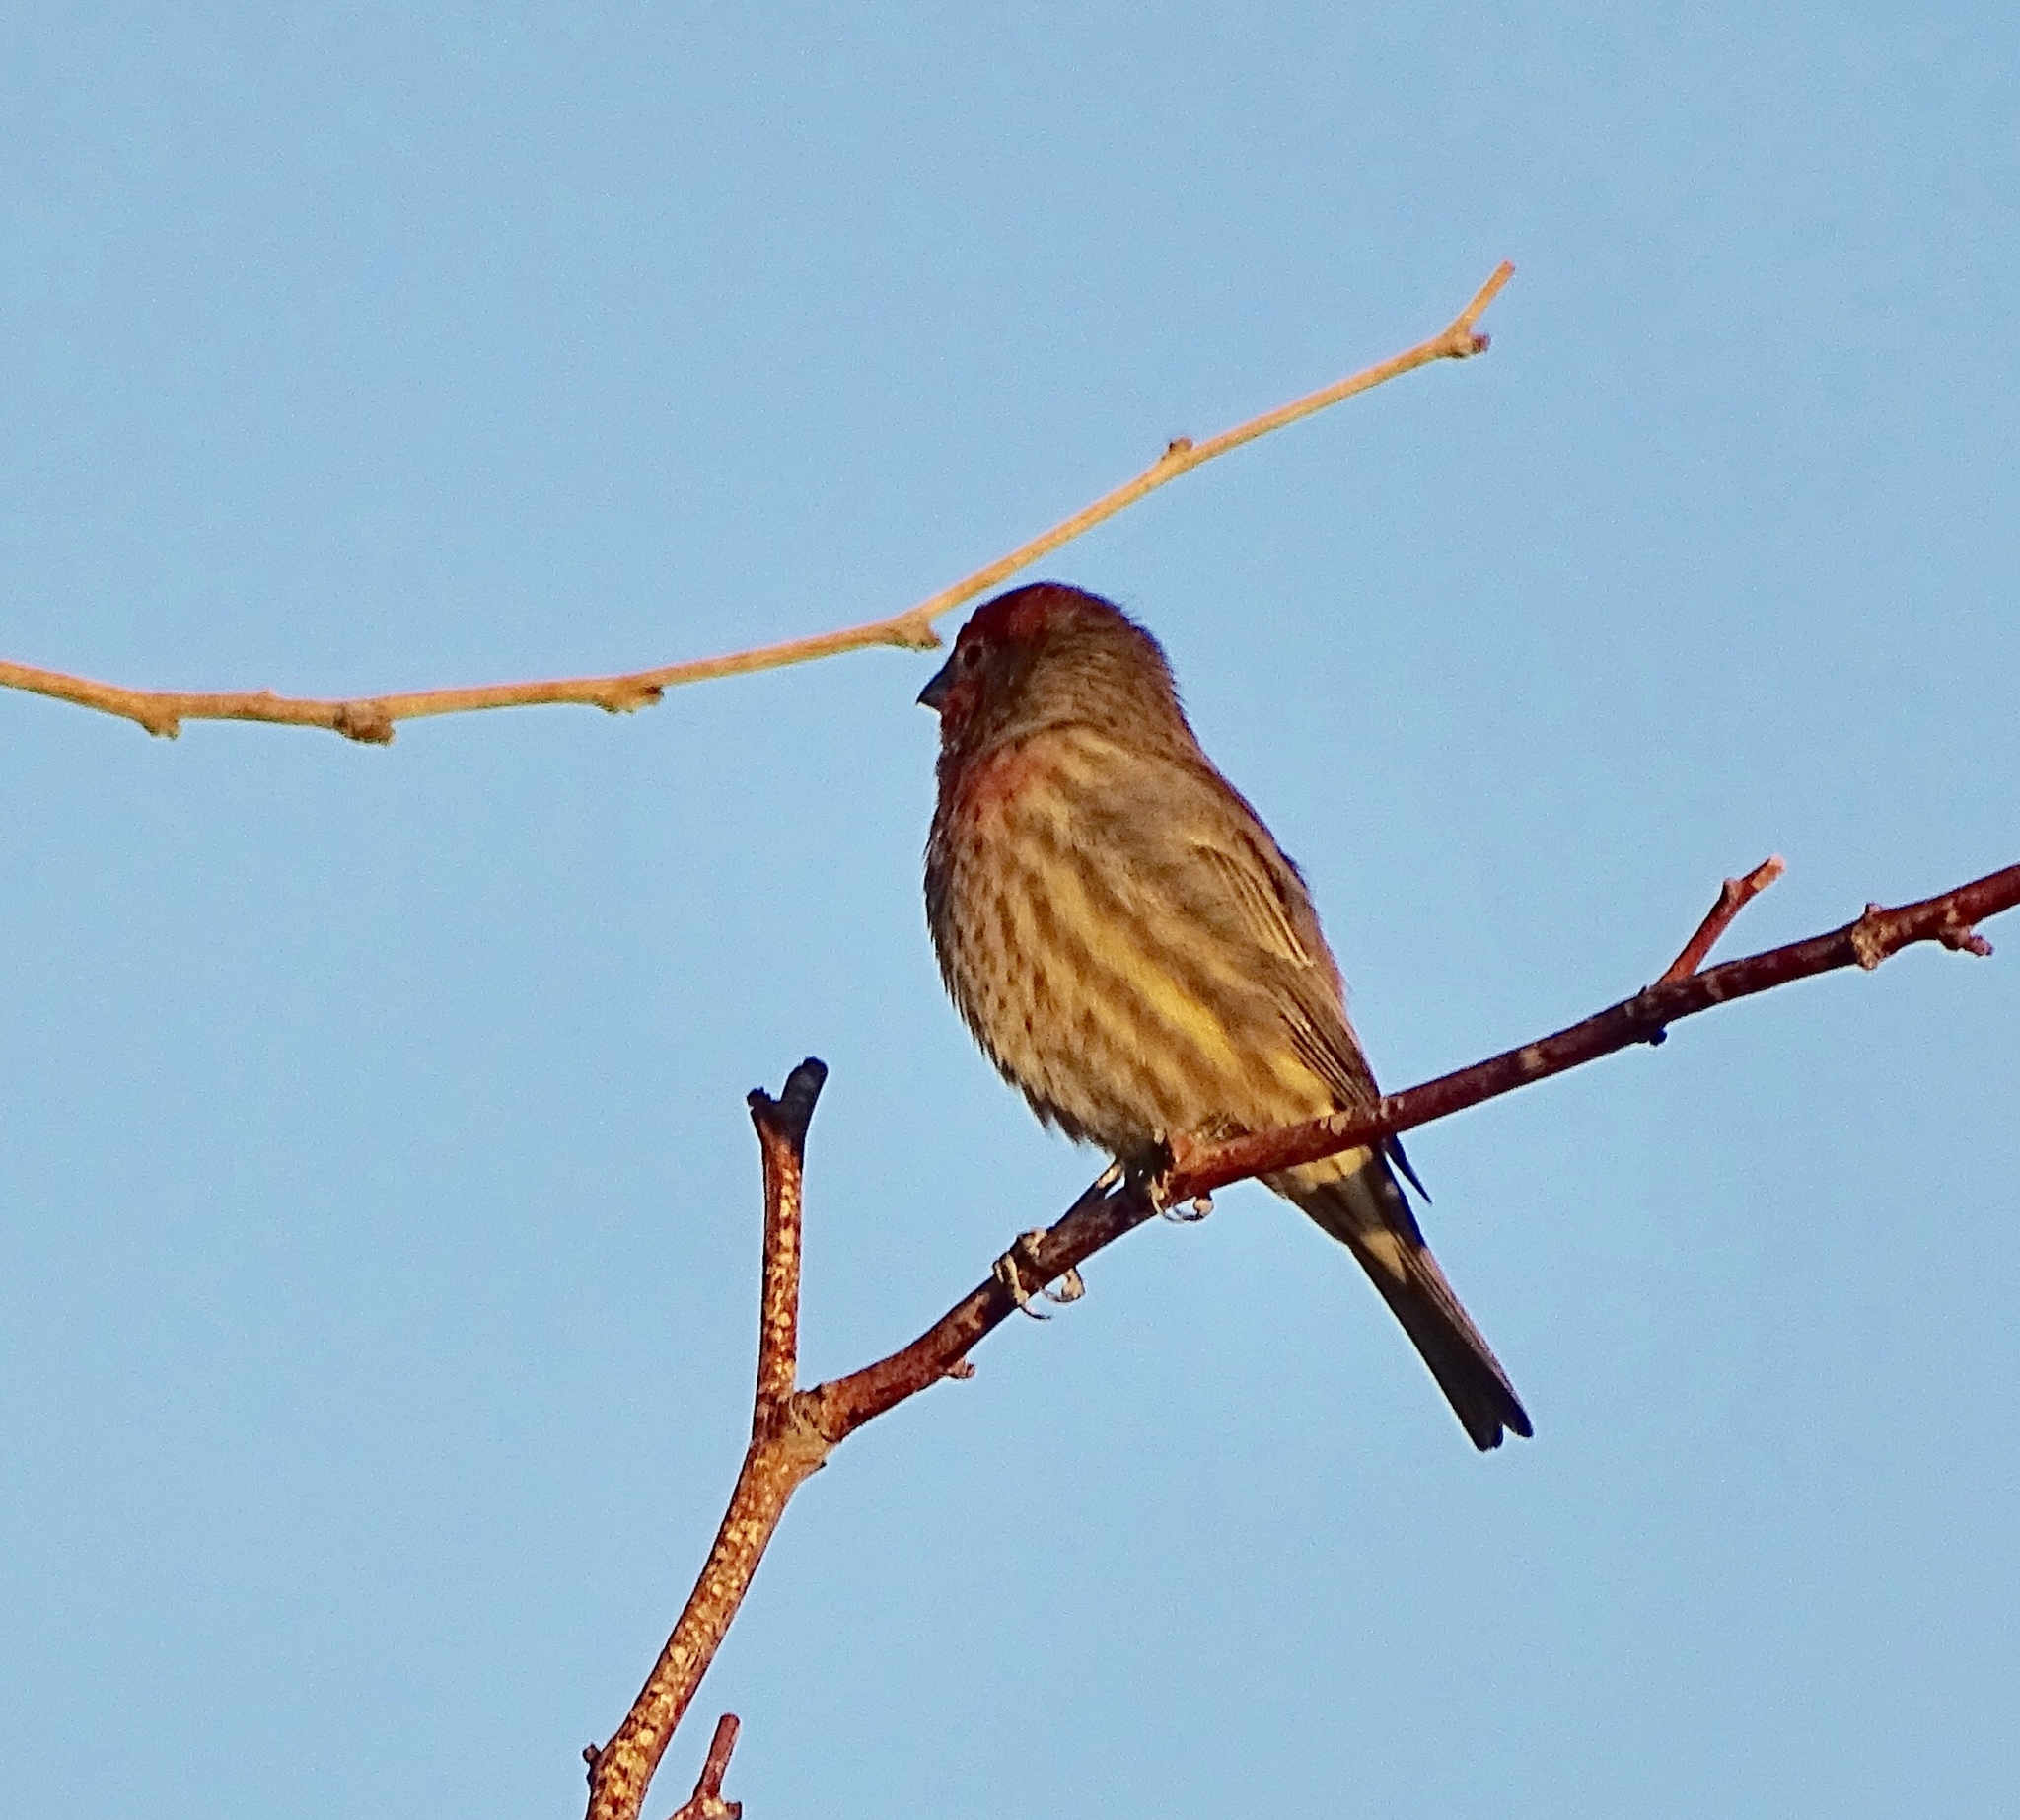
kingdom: Animalia
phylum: Chordata
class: Aves
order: Passeriformes
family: Fringillidae
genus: Haemorhous
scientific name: Haemorhous mexicanus
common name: House finch
